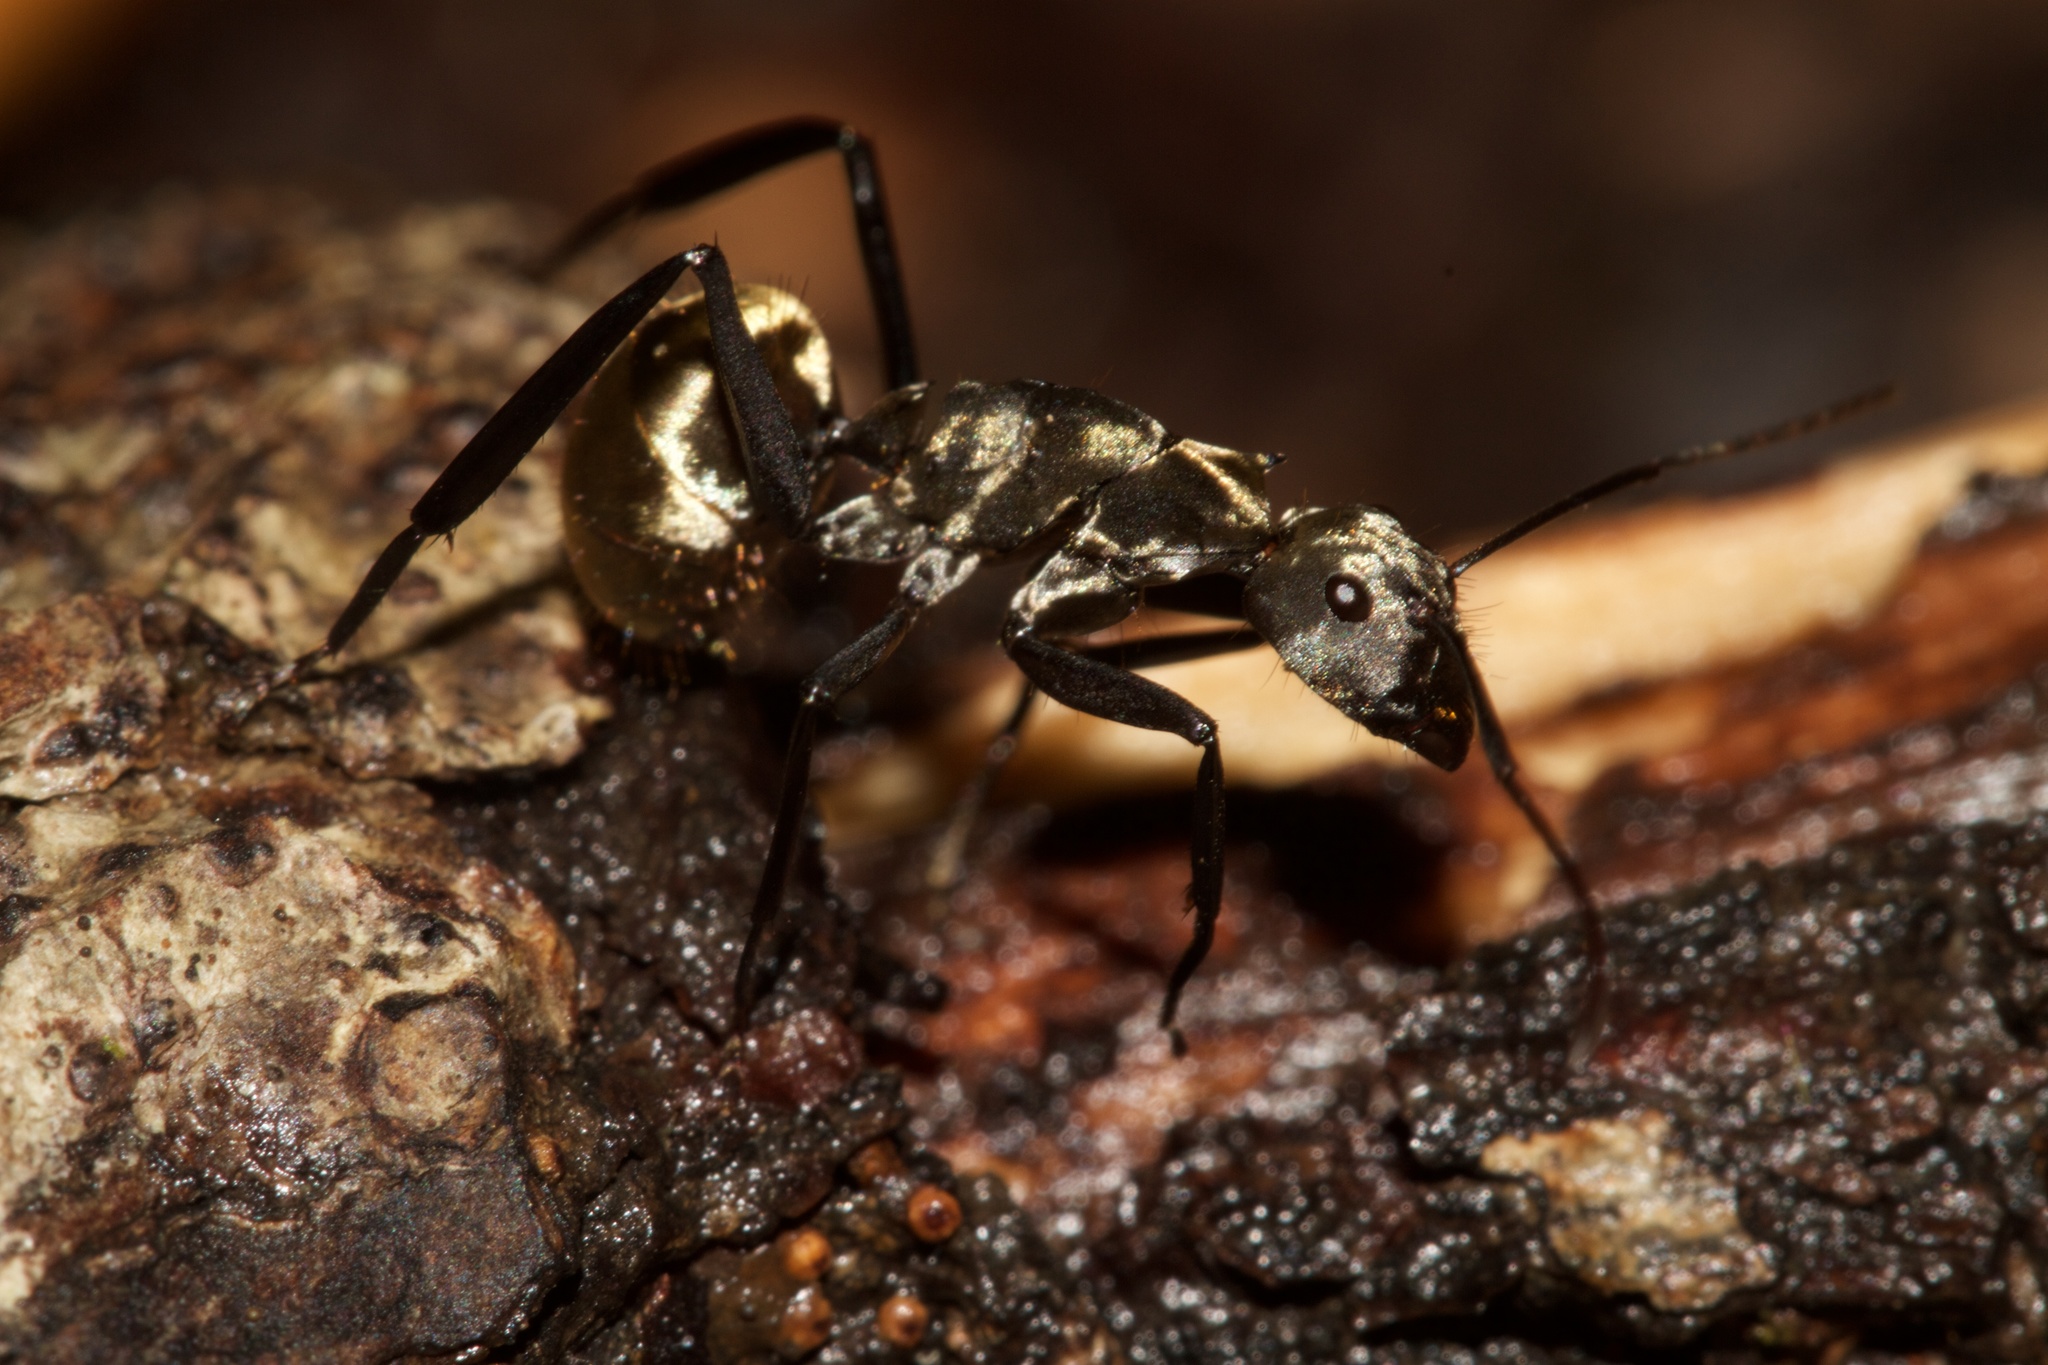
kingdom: Animalia
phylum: Arthropoda
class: Insecta
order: Hymenoptera
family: Formicidae
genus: Camponotus
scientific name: Camponotus sericeiventris
